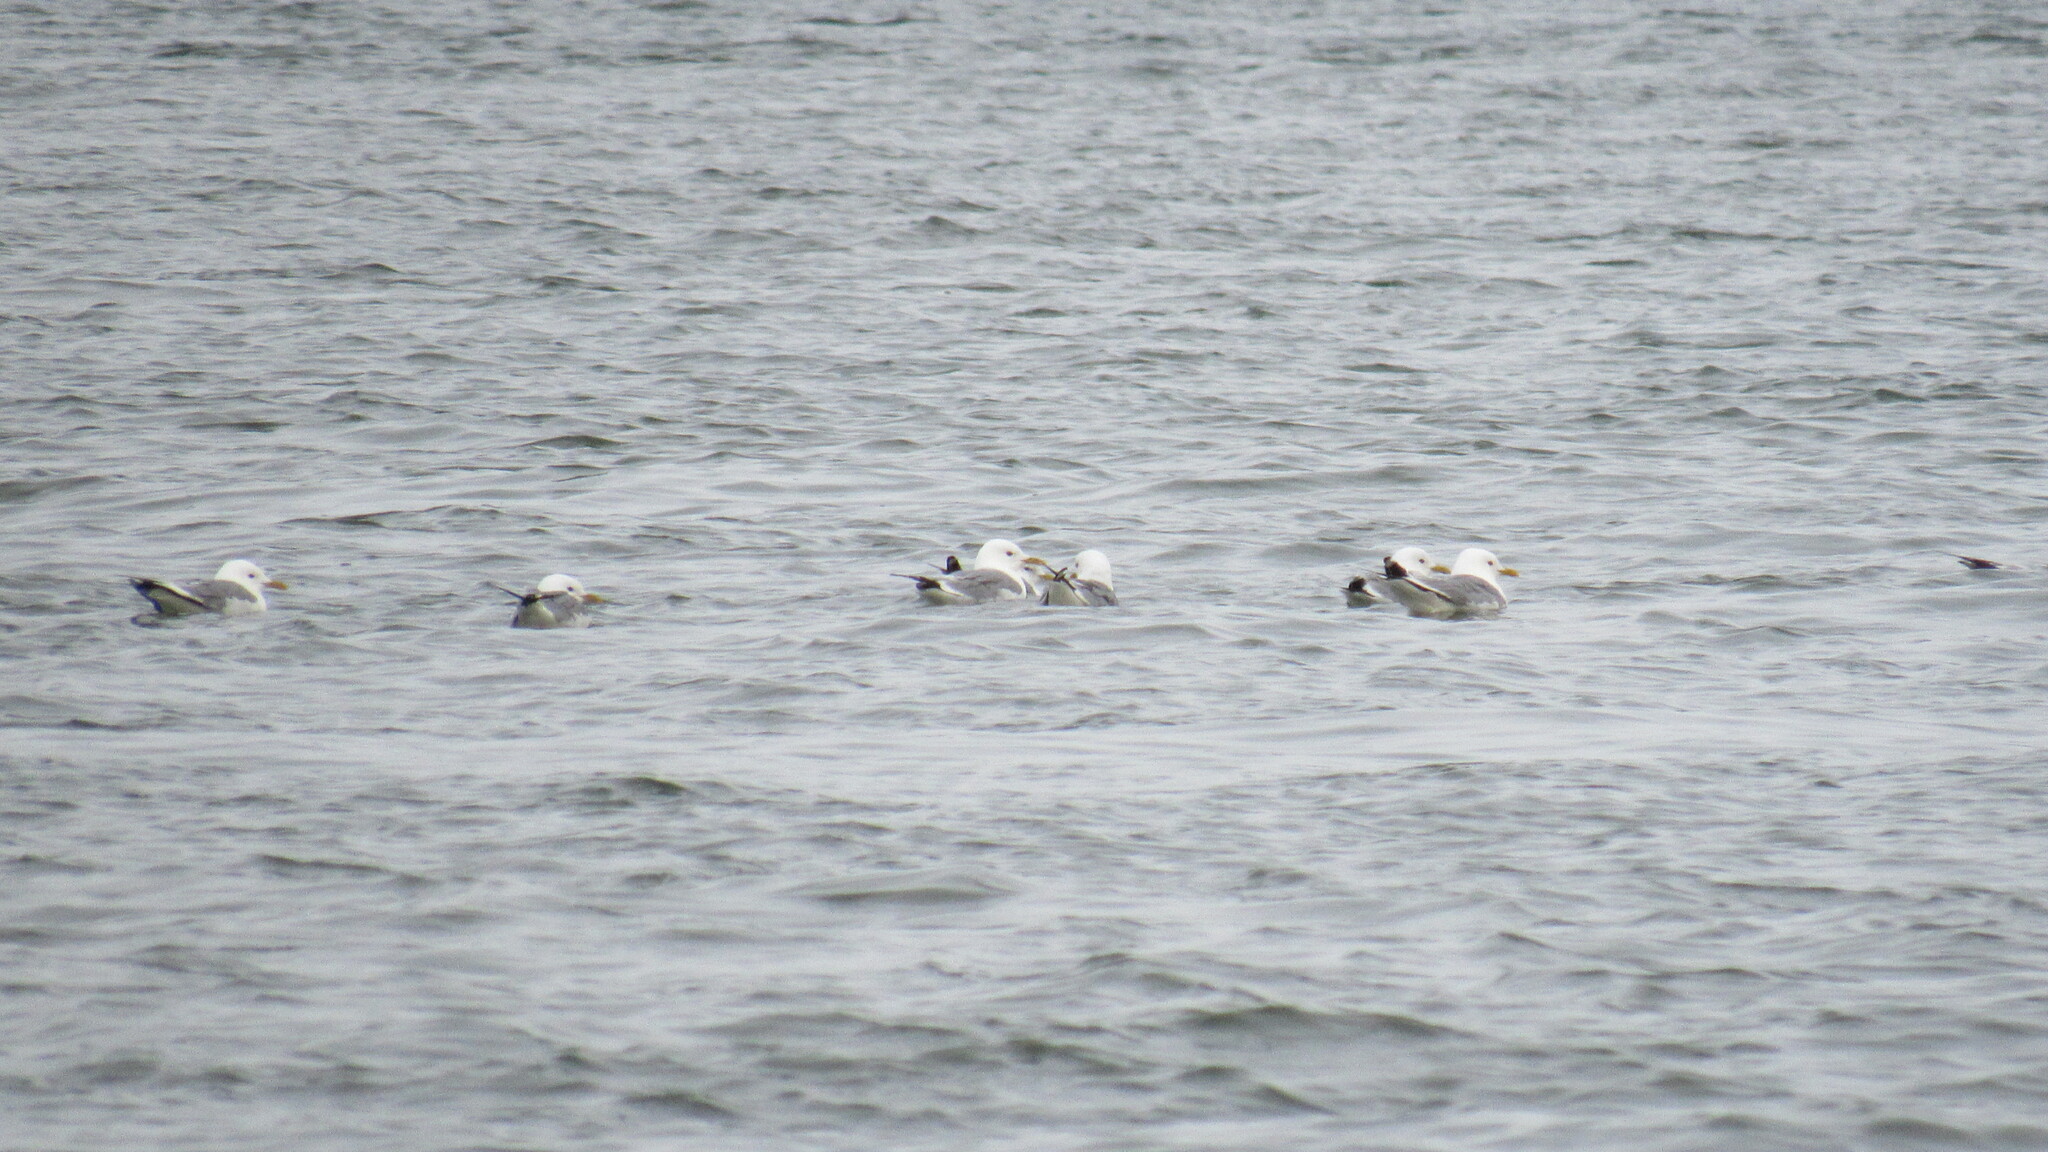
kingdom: Animalia
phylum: Chordata
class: Aves
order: Charadriiformes
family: Laridae
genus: Larus
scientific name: Larus canus
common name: Mew gull
